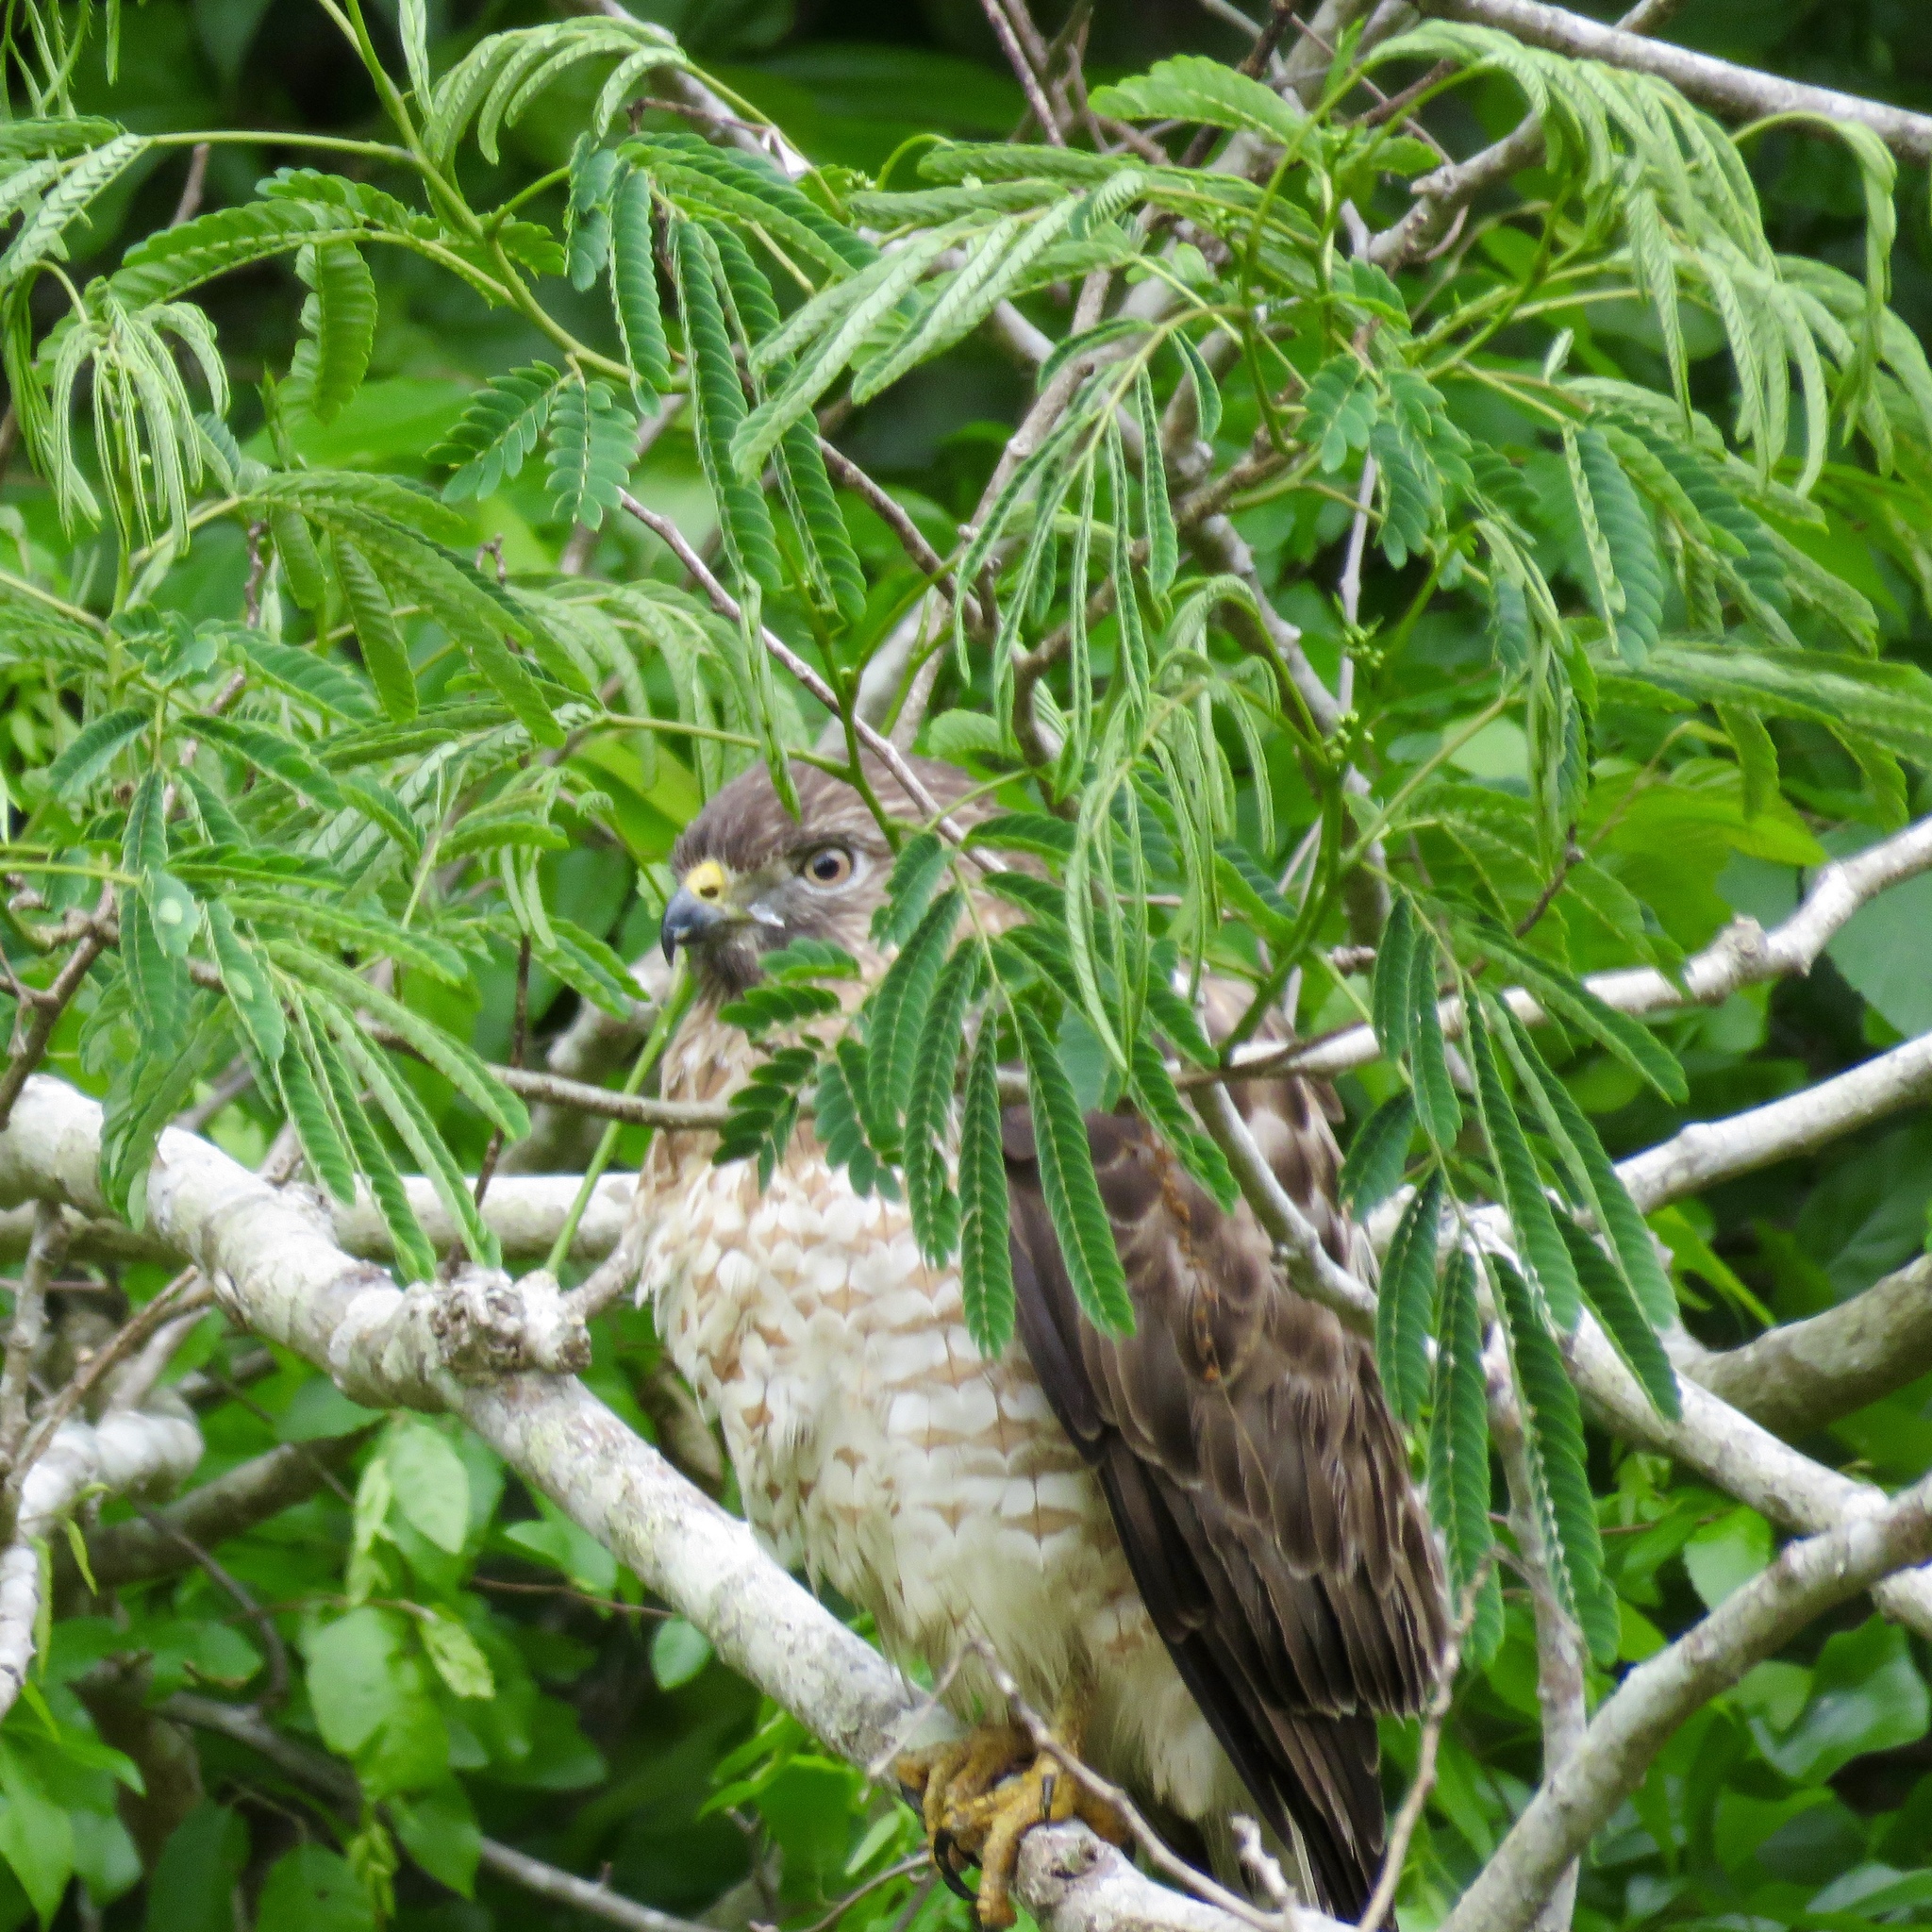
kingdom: Animalia
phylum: Chordata
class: Aves
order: Accipitriformes
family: Accipitridae
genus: Buteo
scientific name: Buteo platypterus
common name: Broad-winged hawk
